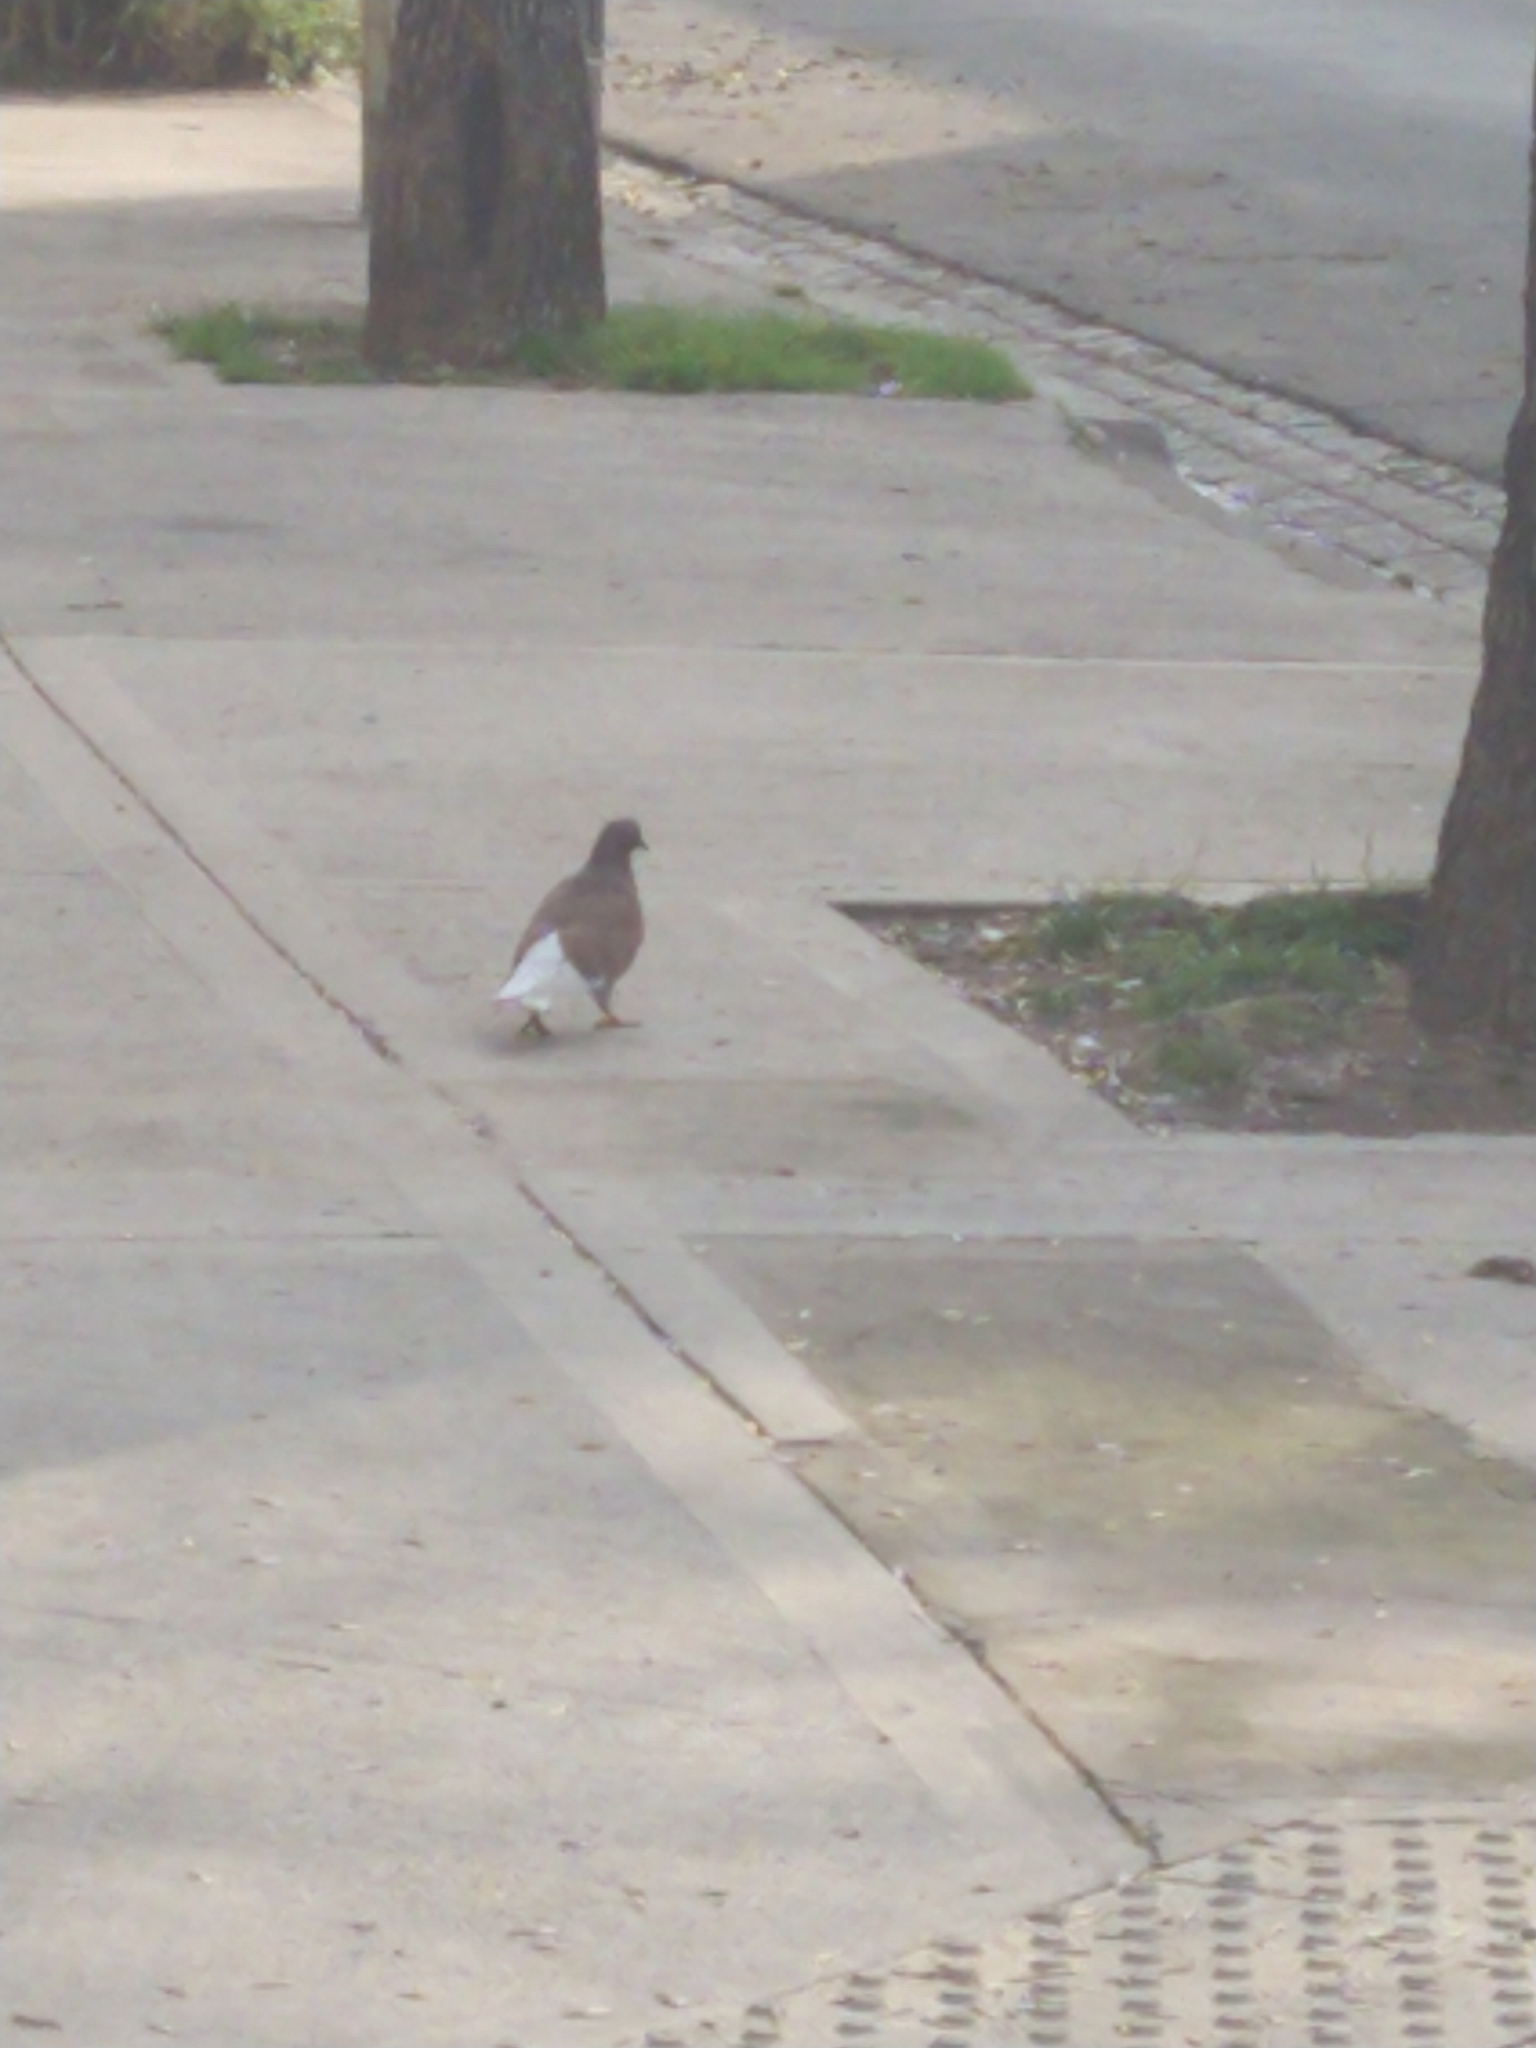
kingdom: Animalia
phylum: Chordata
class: Aves
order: Columbiformes
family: Columbidae
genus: Columba
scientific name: Columba livia
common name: Rock pigeon
